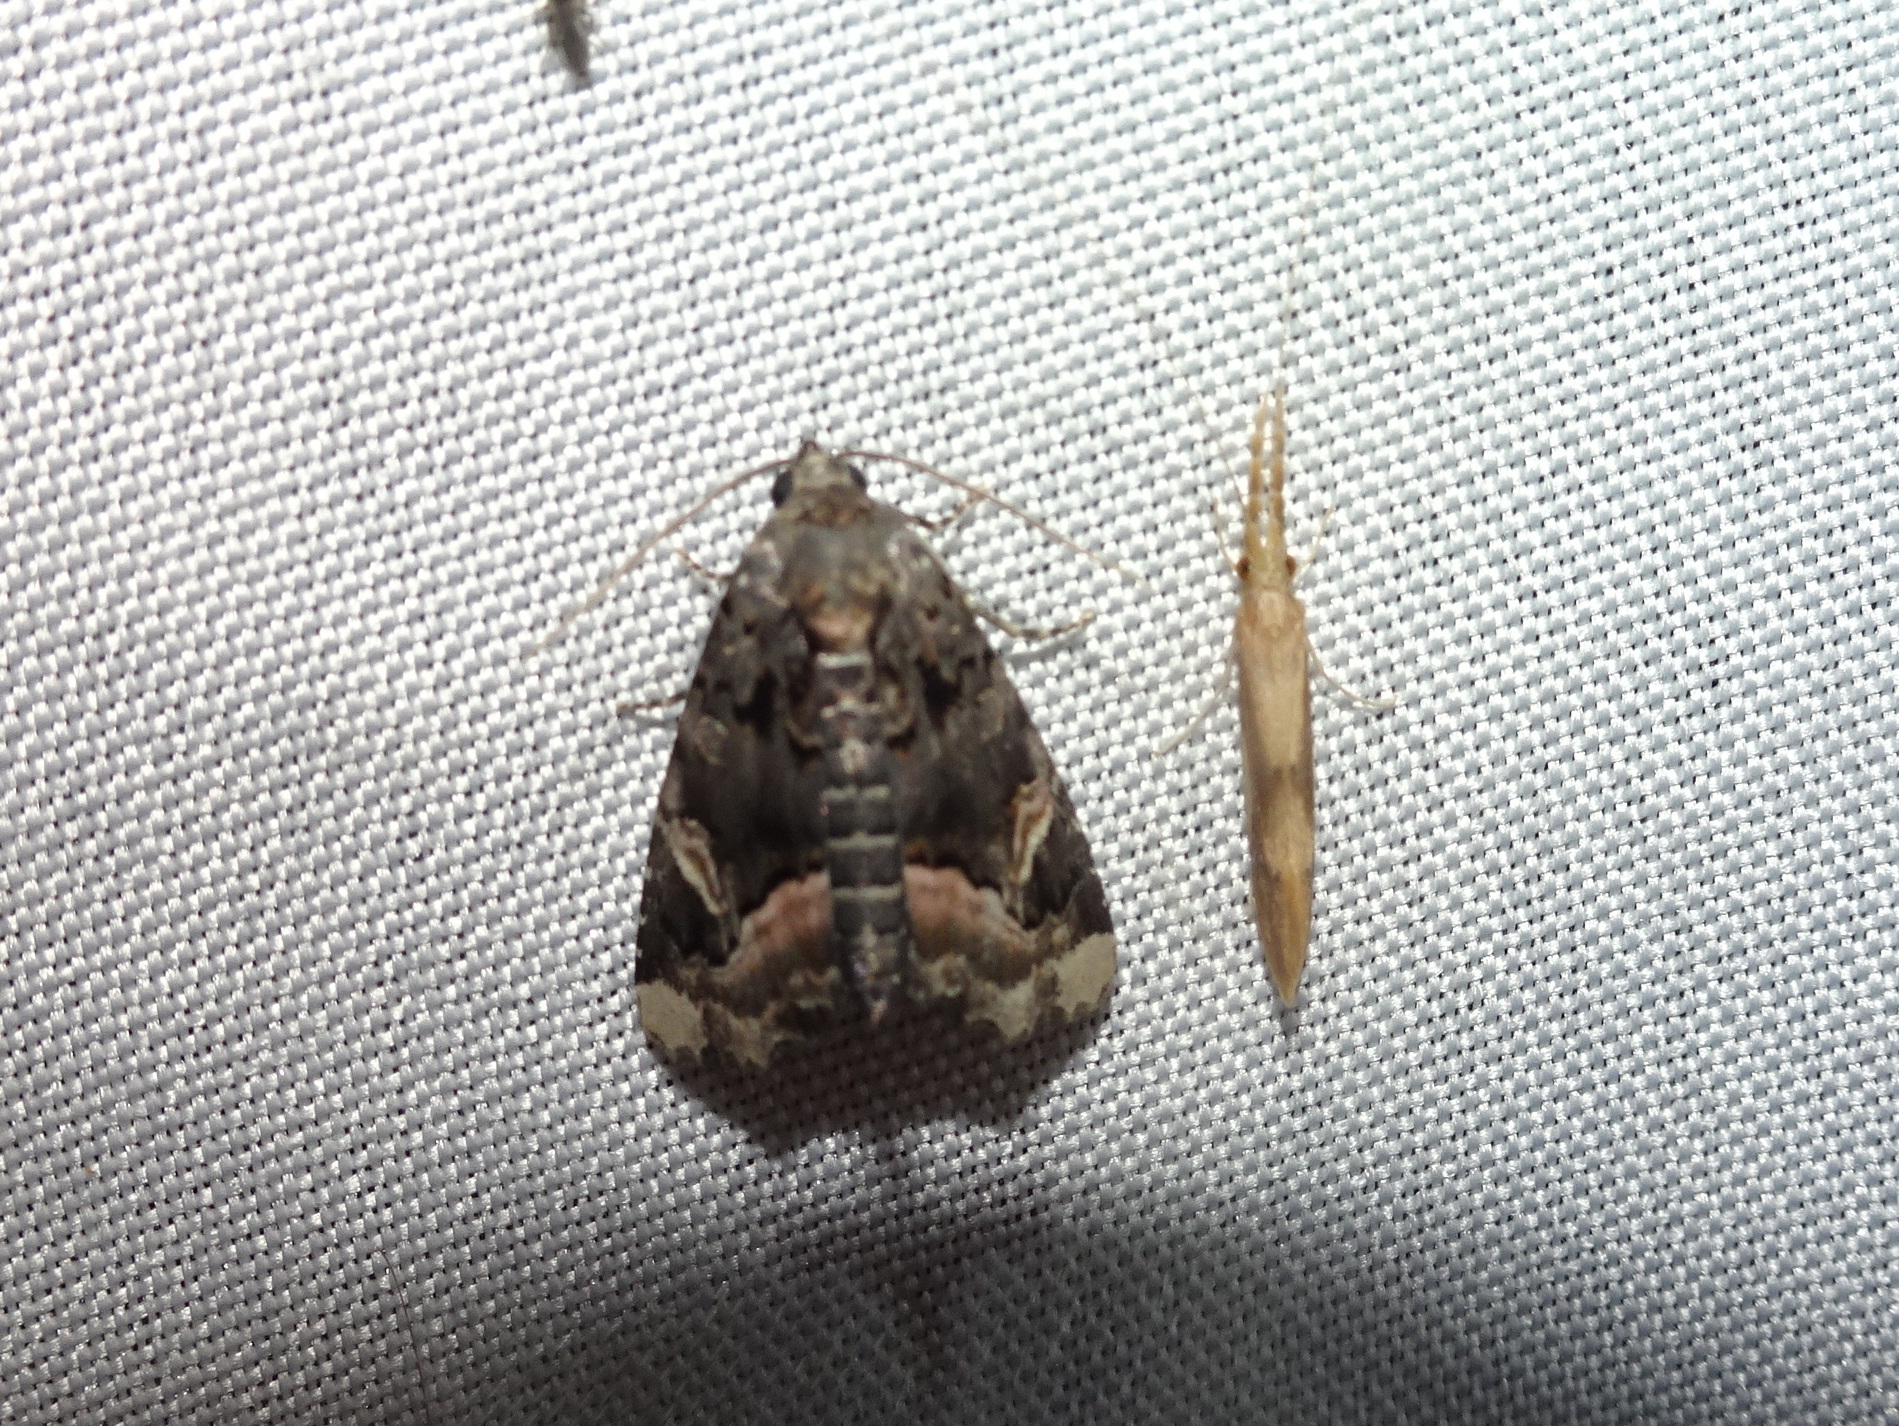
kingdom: Animalia
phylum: Arthropoda
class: Insecta
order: Lepidoptera
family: Noctuidae
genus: Homophoberia
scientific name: Homophoberia apicosa
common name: Black wedge-spot
